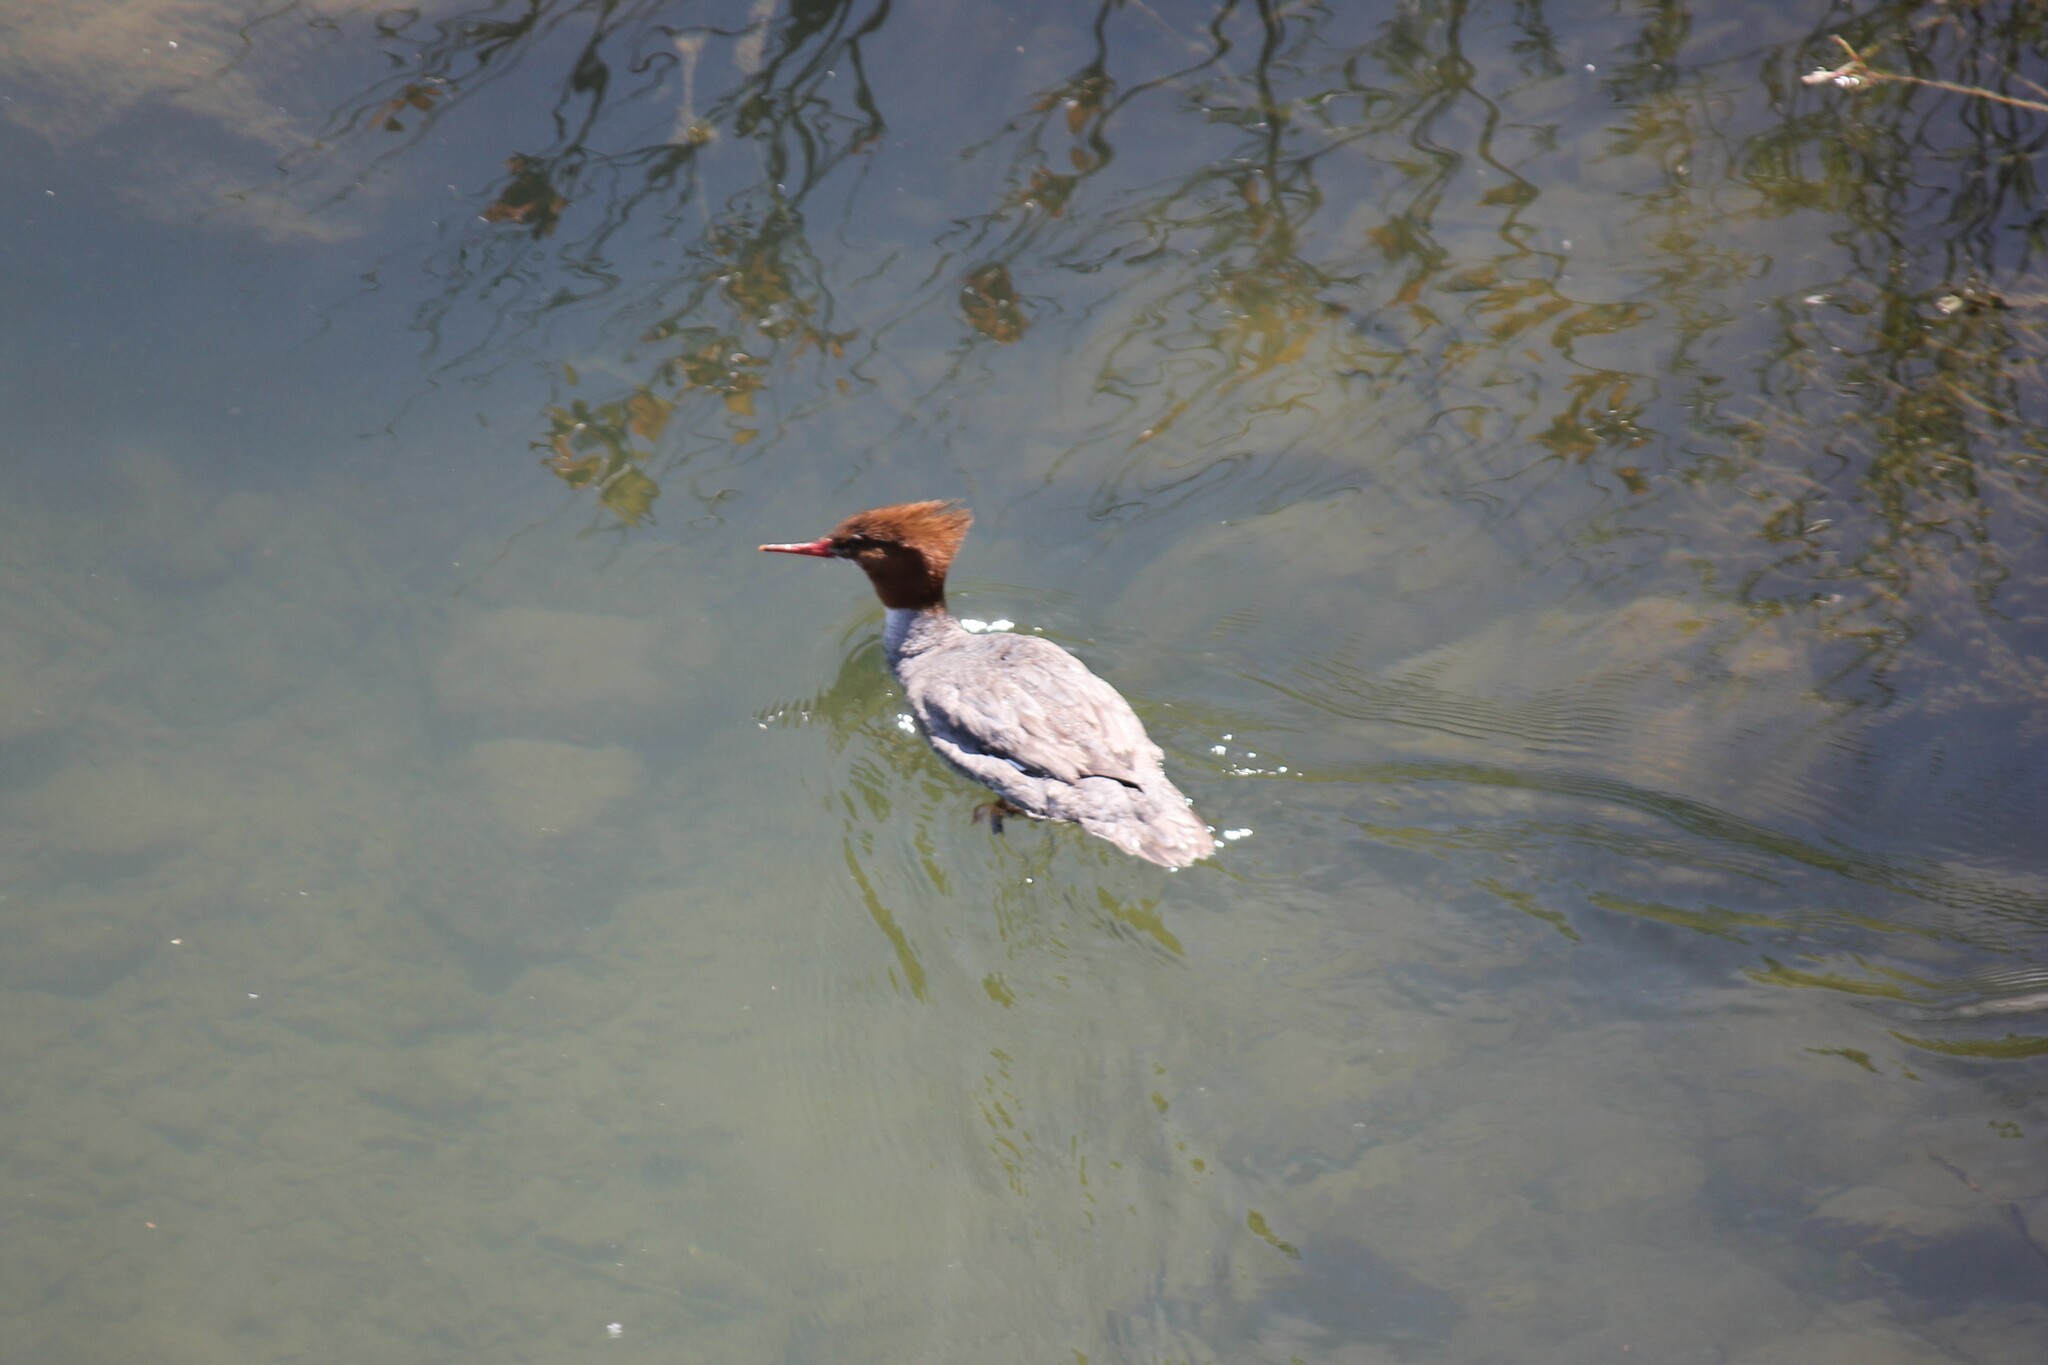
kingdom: Animalia
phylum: Chordata
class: Aves
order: Anseriformes
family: Anatidae
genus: Mergus
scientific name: Mergus merganser
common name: Common merganser
